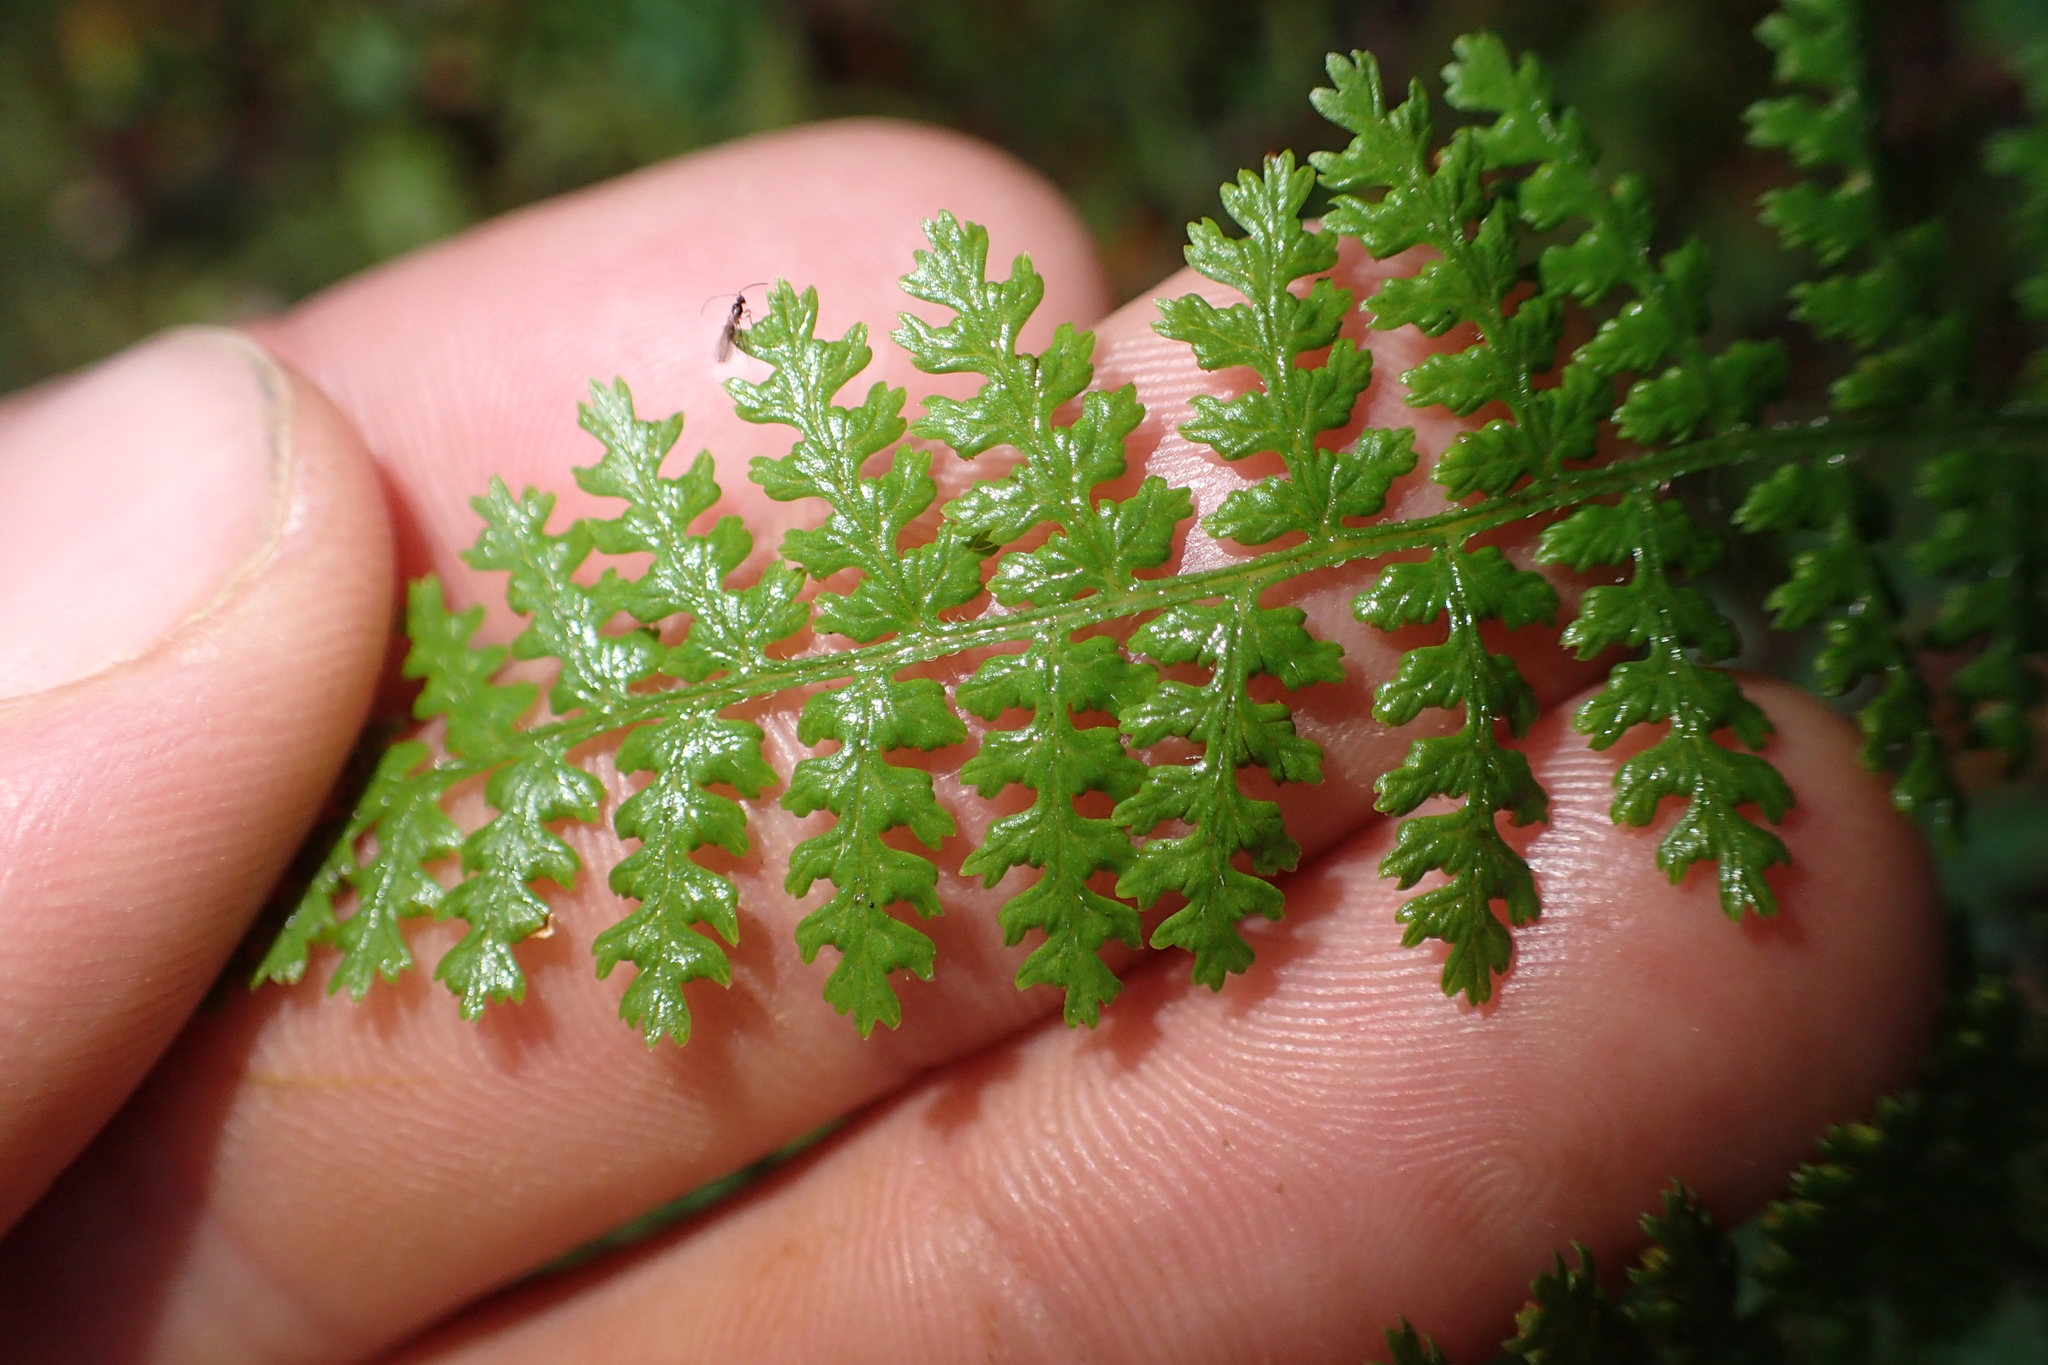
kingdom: Plantae
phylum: Tracheophyta
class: Polypodiopsida
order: Polypodiales
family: Dennstaedtiaceae
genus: Hypolepis
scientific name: Hypolepis millefolium
